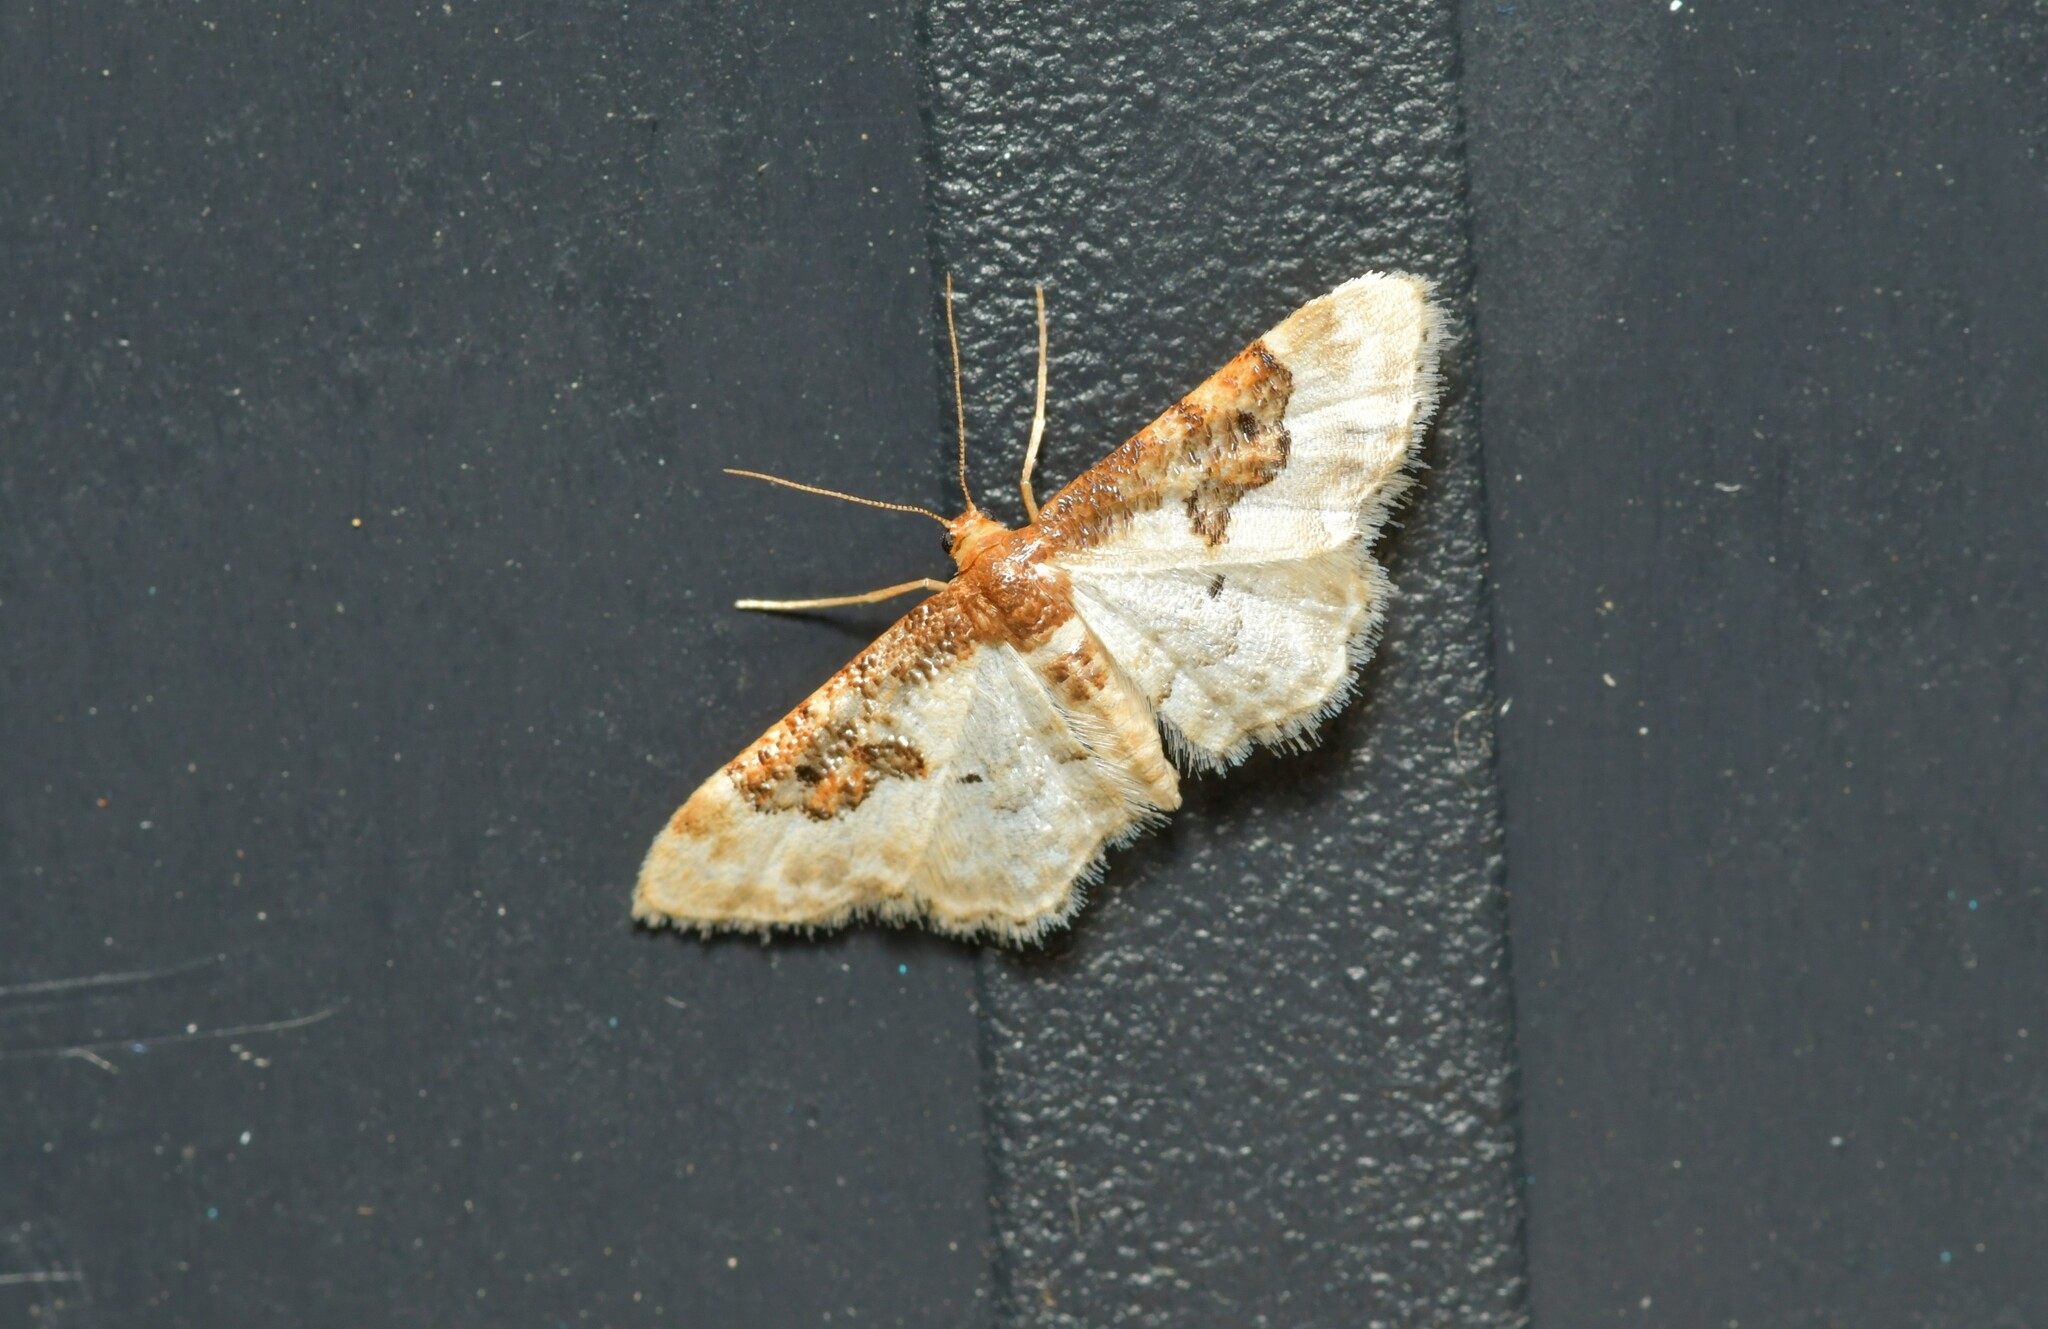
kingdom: Animalia
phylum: Arthropoda
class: Insecta
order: Lepidoptera
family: Geometridae
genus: Idaea
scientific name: Idaea rusticata
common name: Least carpet
